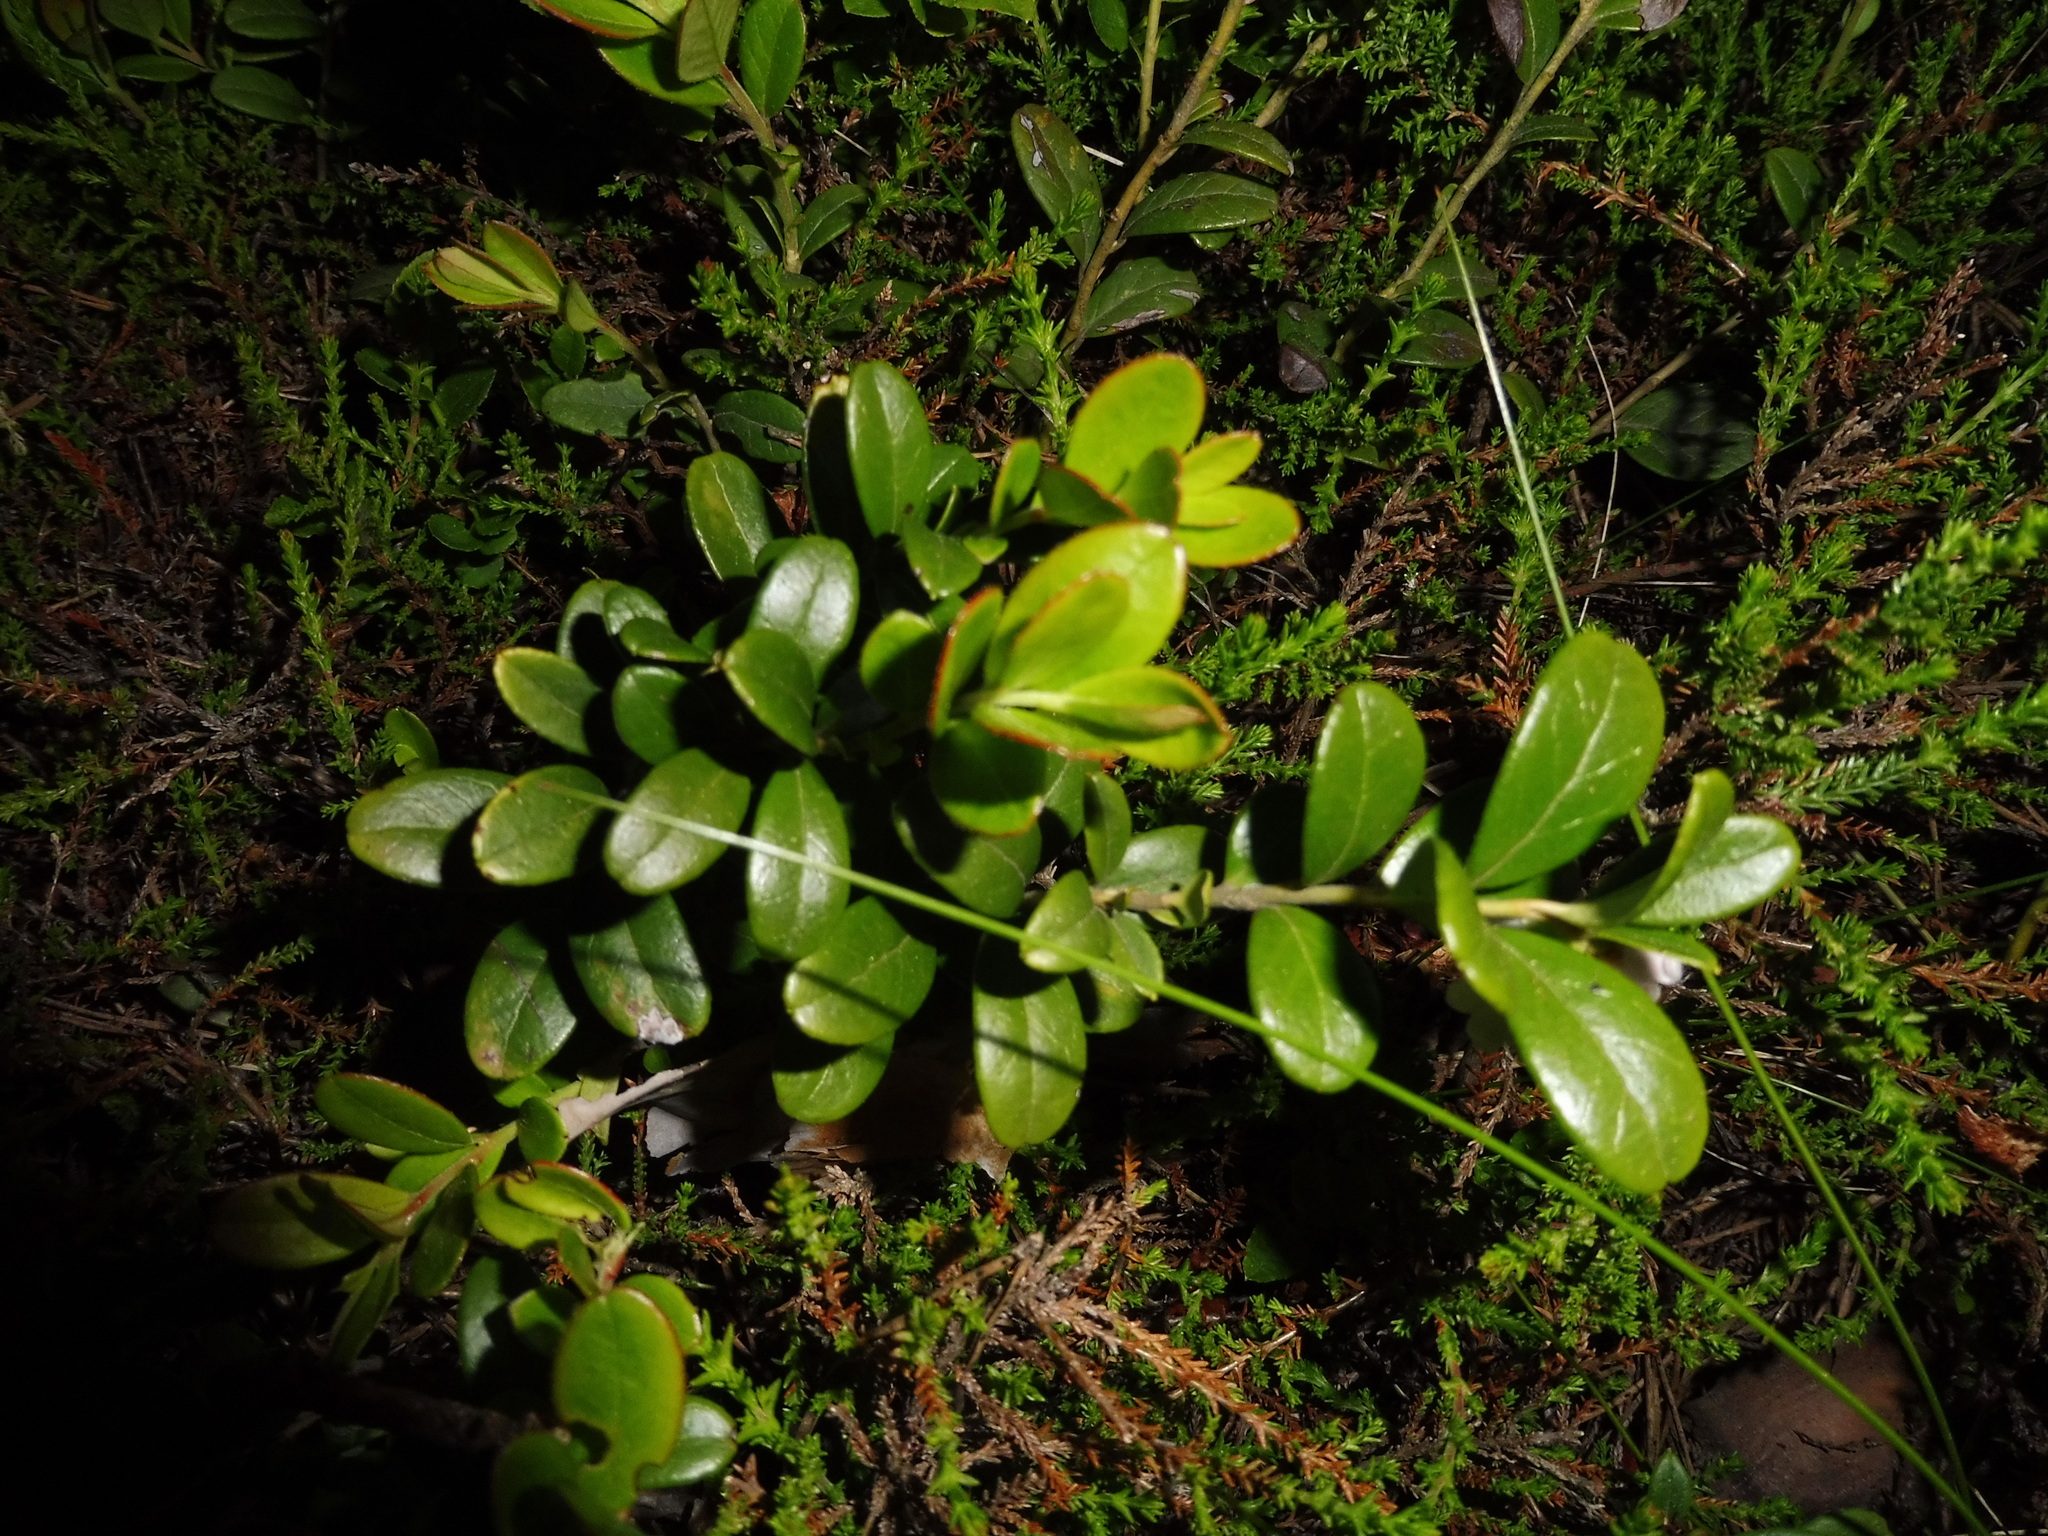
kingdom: Plantae
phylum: Tracheophyta
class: Magnoliopsida
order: Ericales
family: Ericaceae
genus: Vaccinium
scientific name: Vaccinium vitis-idaea
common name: Cowberry
